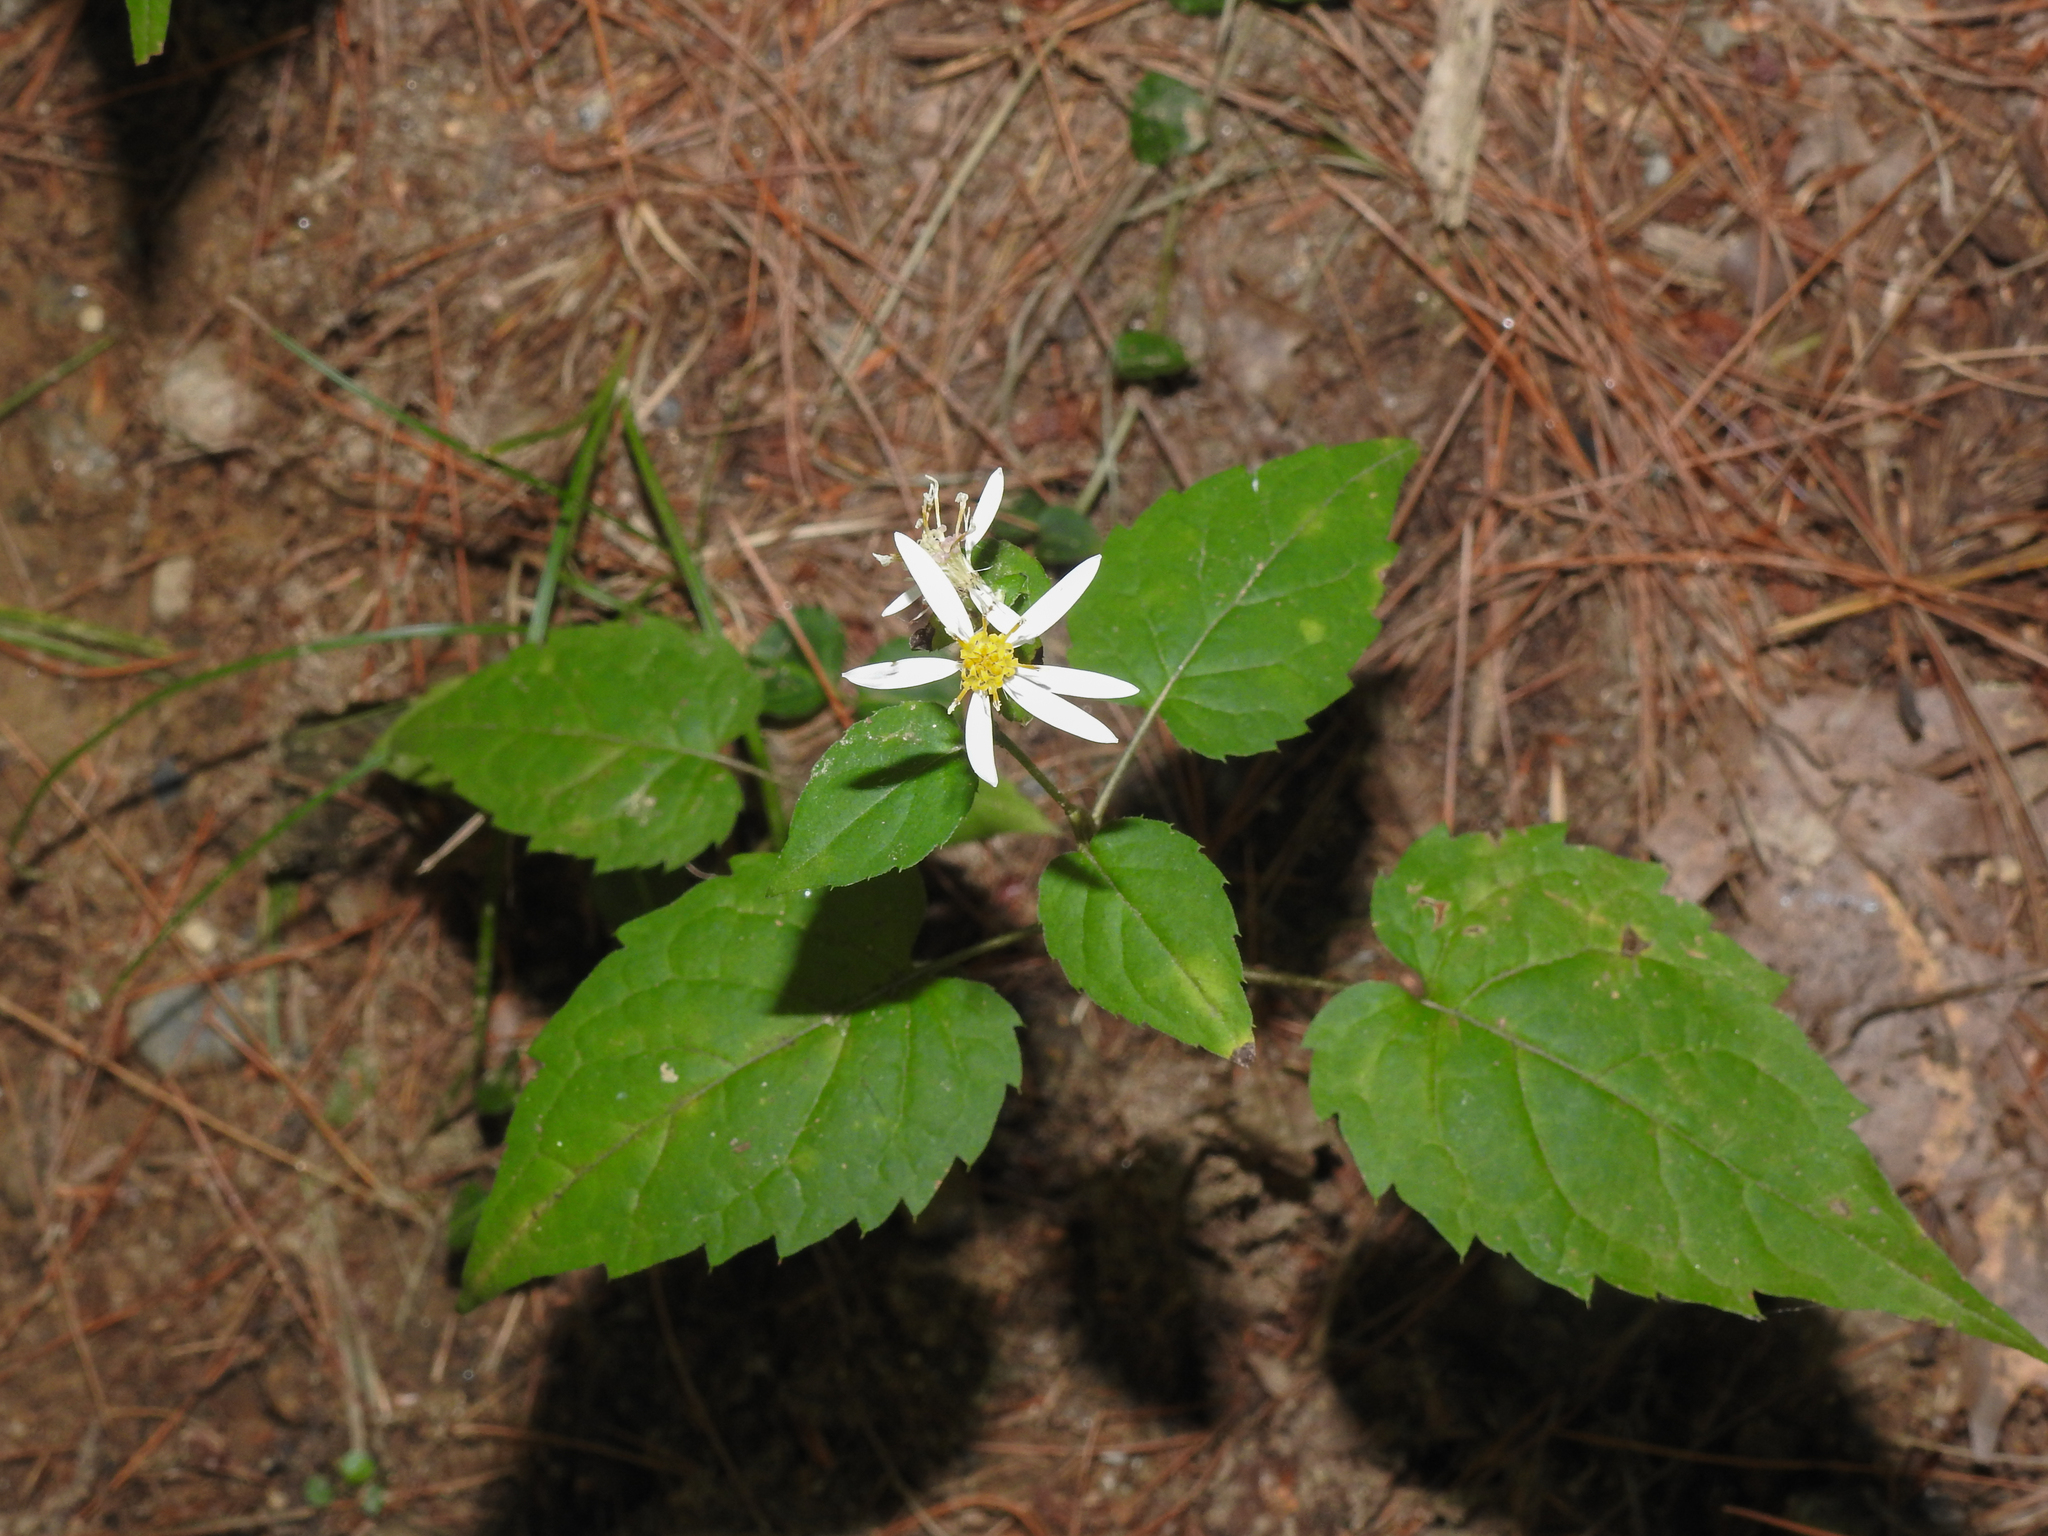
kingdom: Plantae
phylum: Tracheophyta
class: Magnoliopsida
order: Asterales
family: Asteraceae
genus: Eurybia
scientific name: Eurybia divaricata
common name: White wood aster
